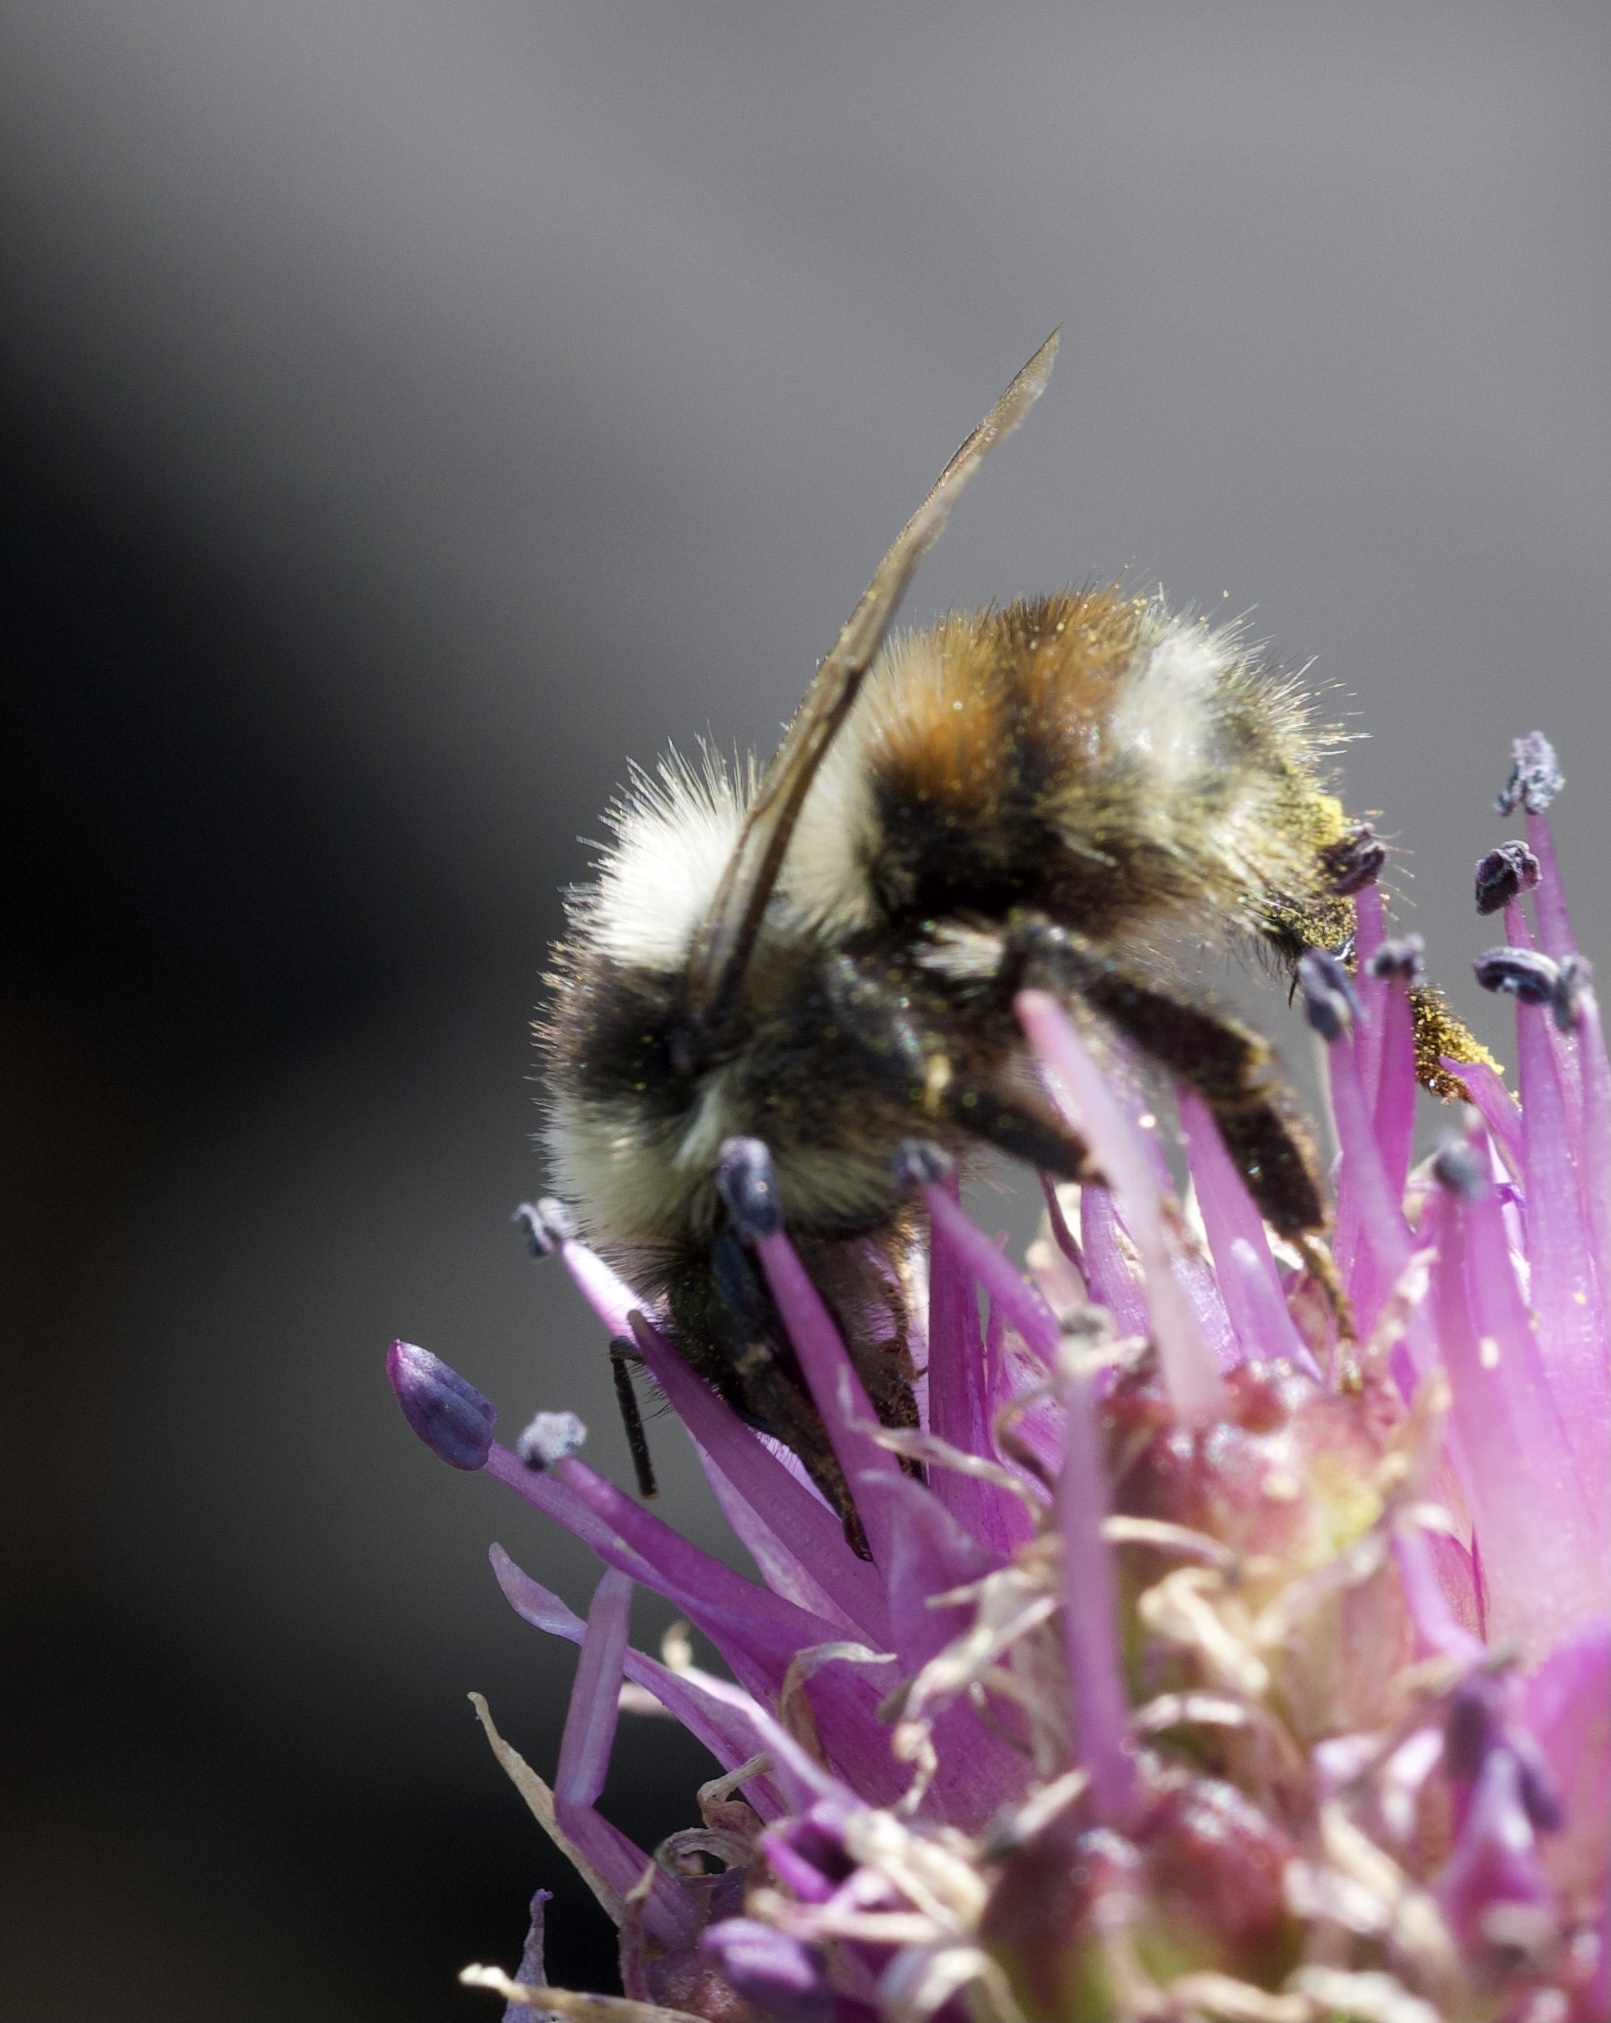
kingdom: Animalia
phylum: Arthropoda
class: Insecta
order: Hymenoptera
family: Apidae
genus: Bombus
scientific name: Bombus sylvicola
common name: Forest bumble bee
